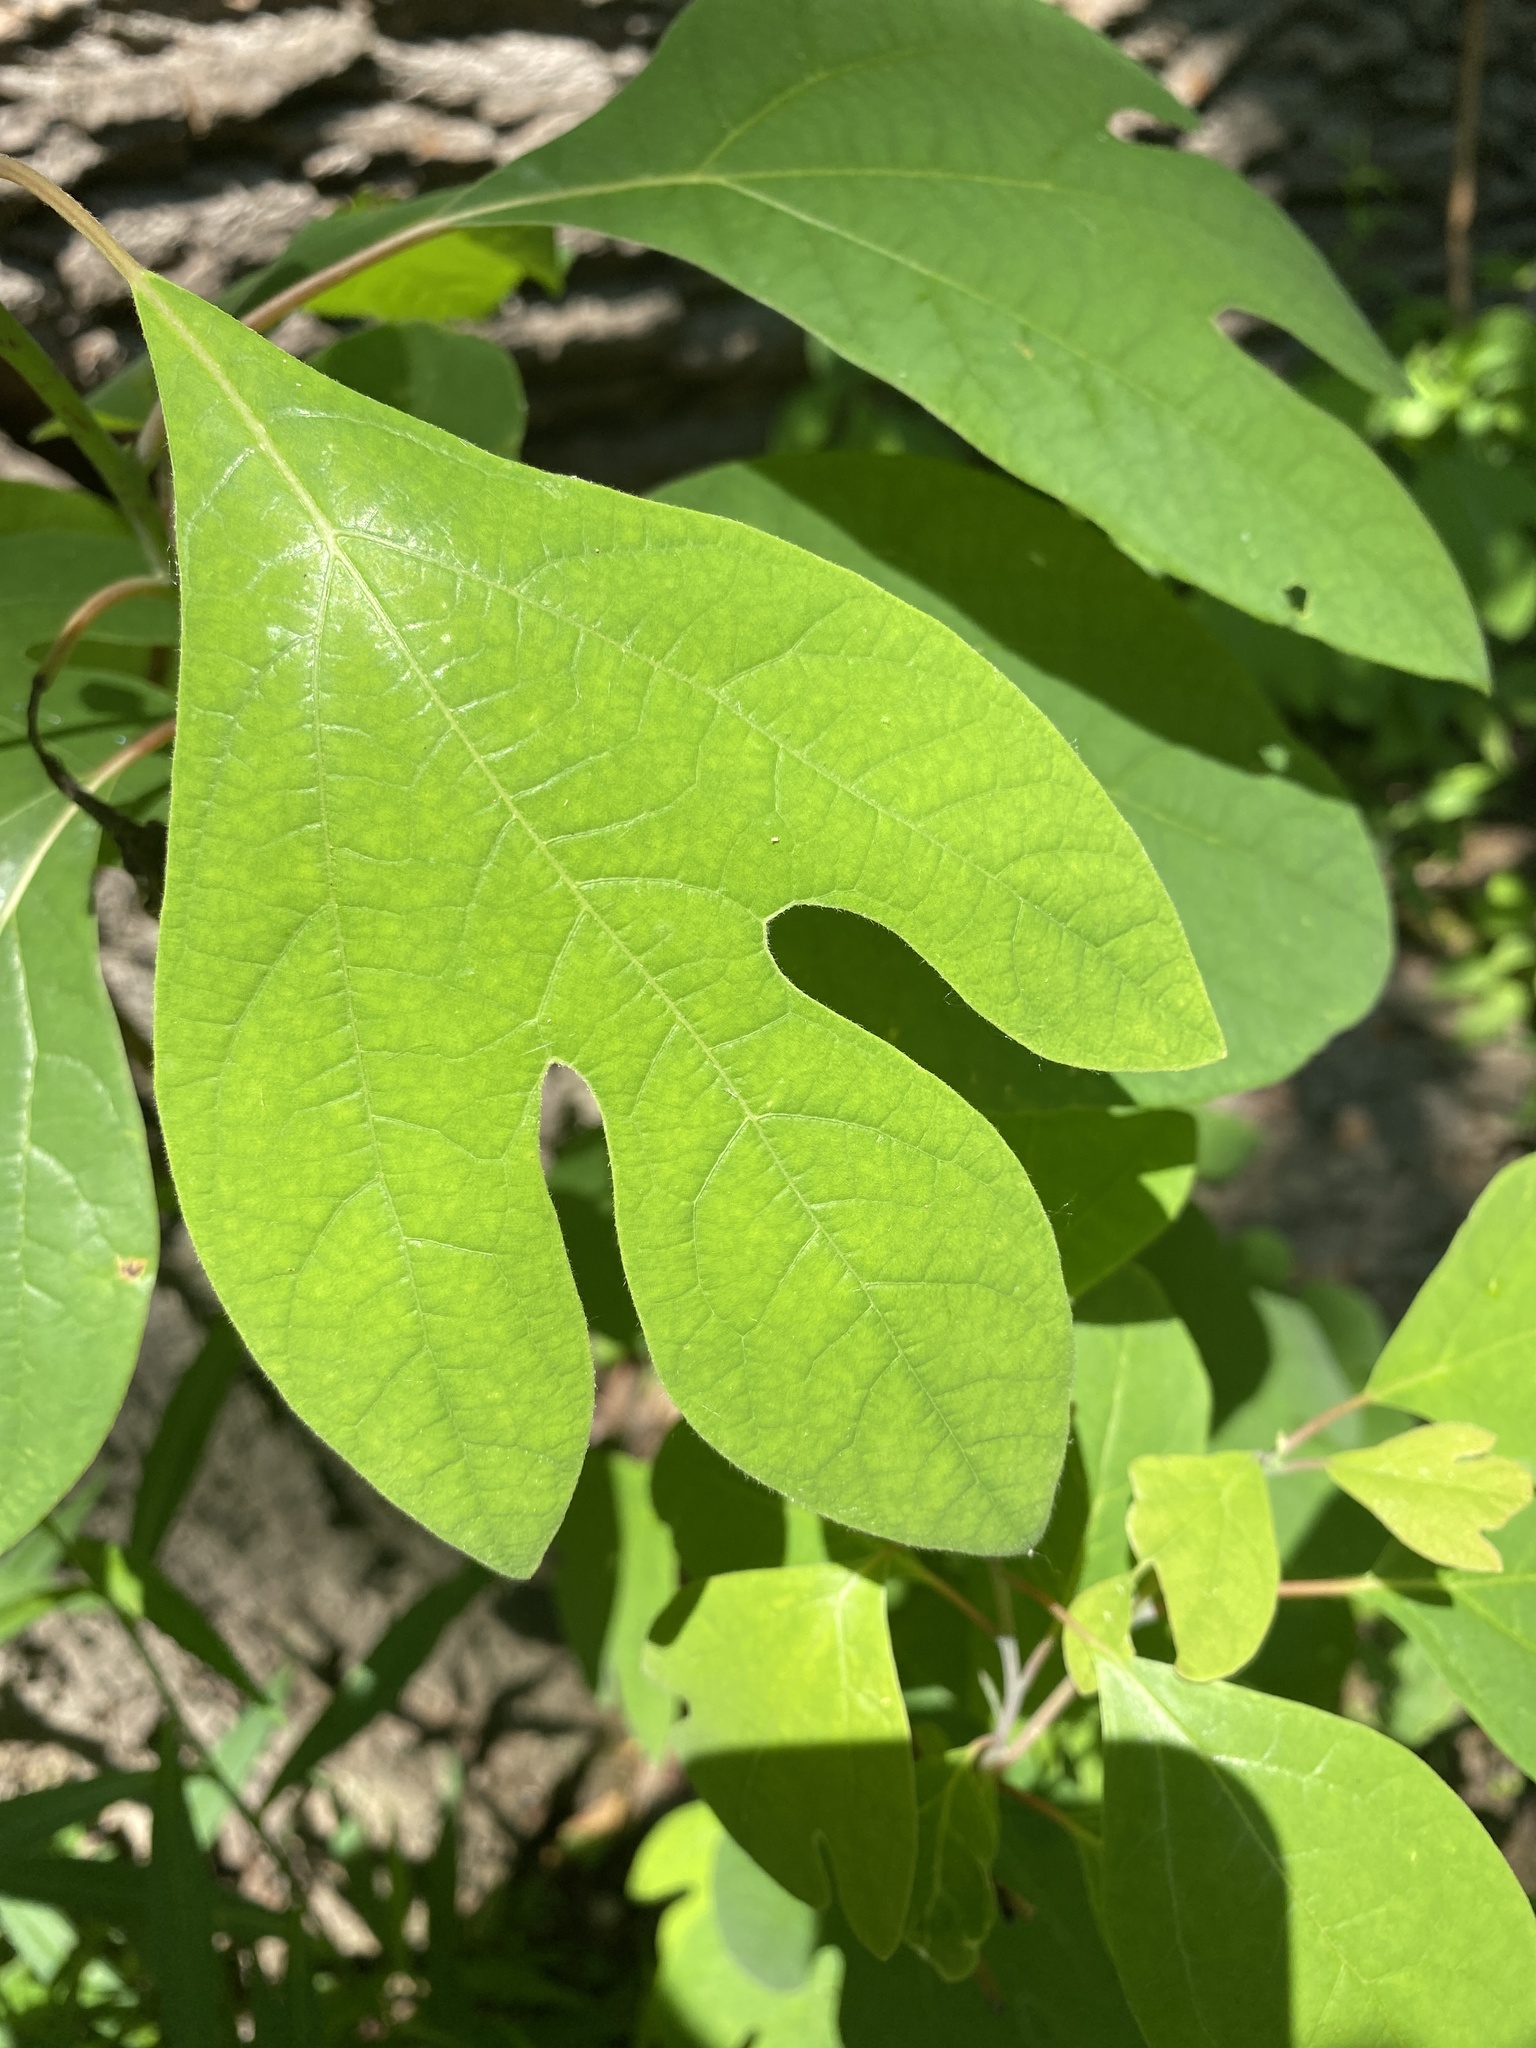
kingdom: Plantae
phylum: Tracheophyta
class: Magnoliopsida
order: Laurales
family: Lauraceae
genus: Sassafras
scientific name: Sassafras albidum
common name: Sassafras
